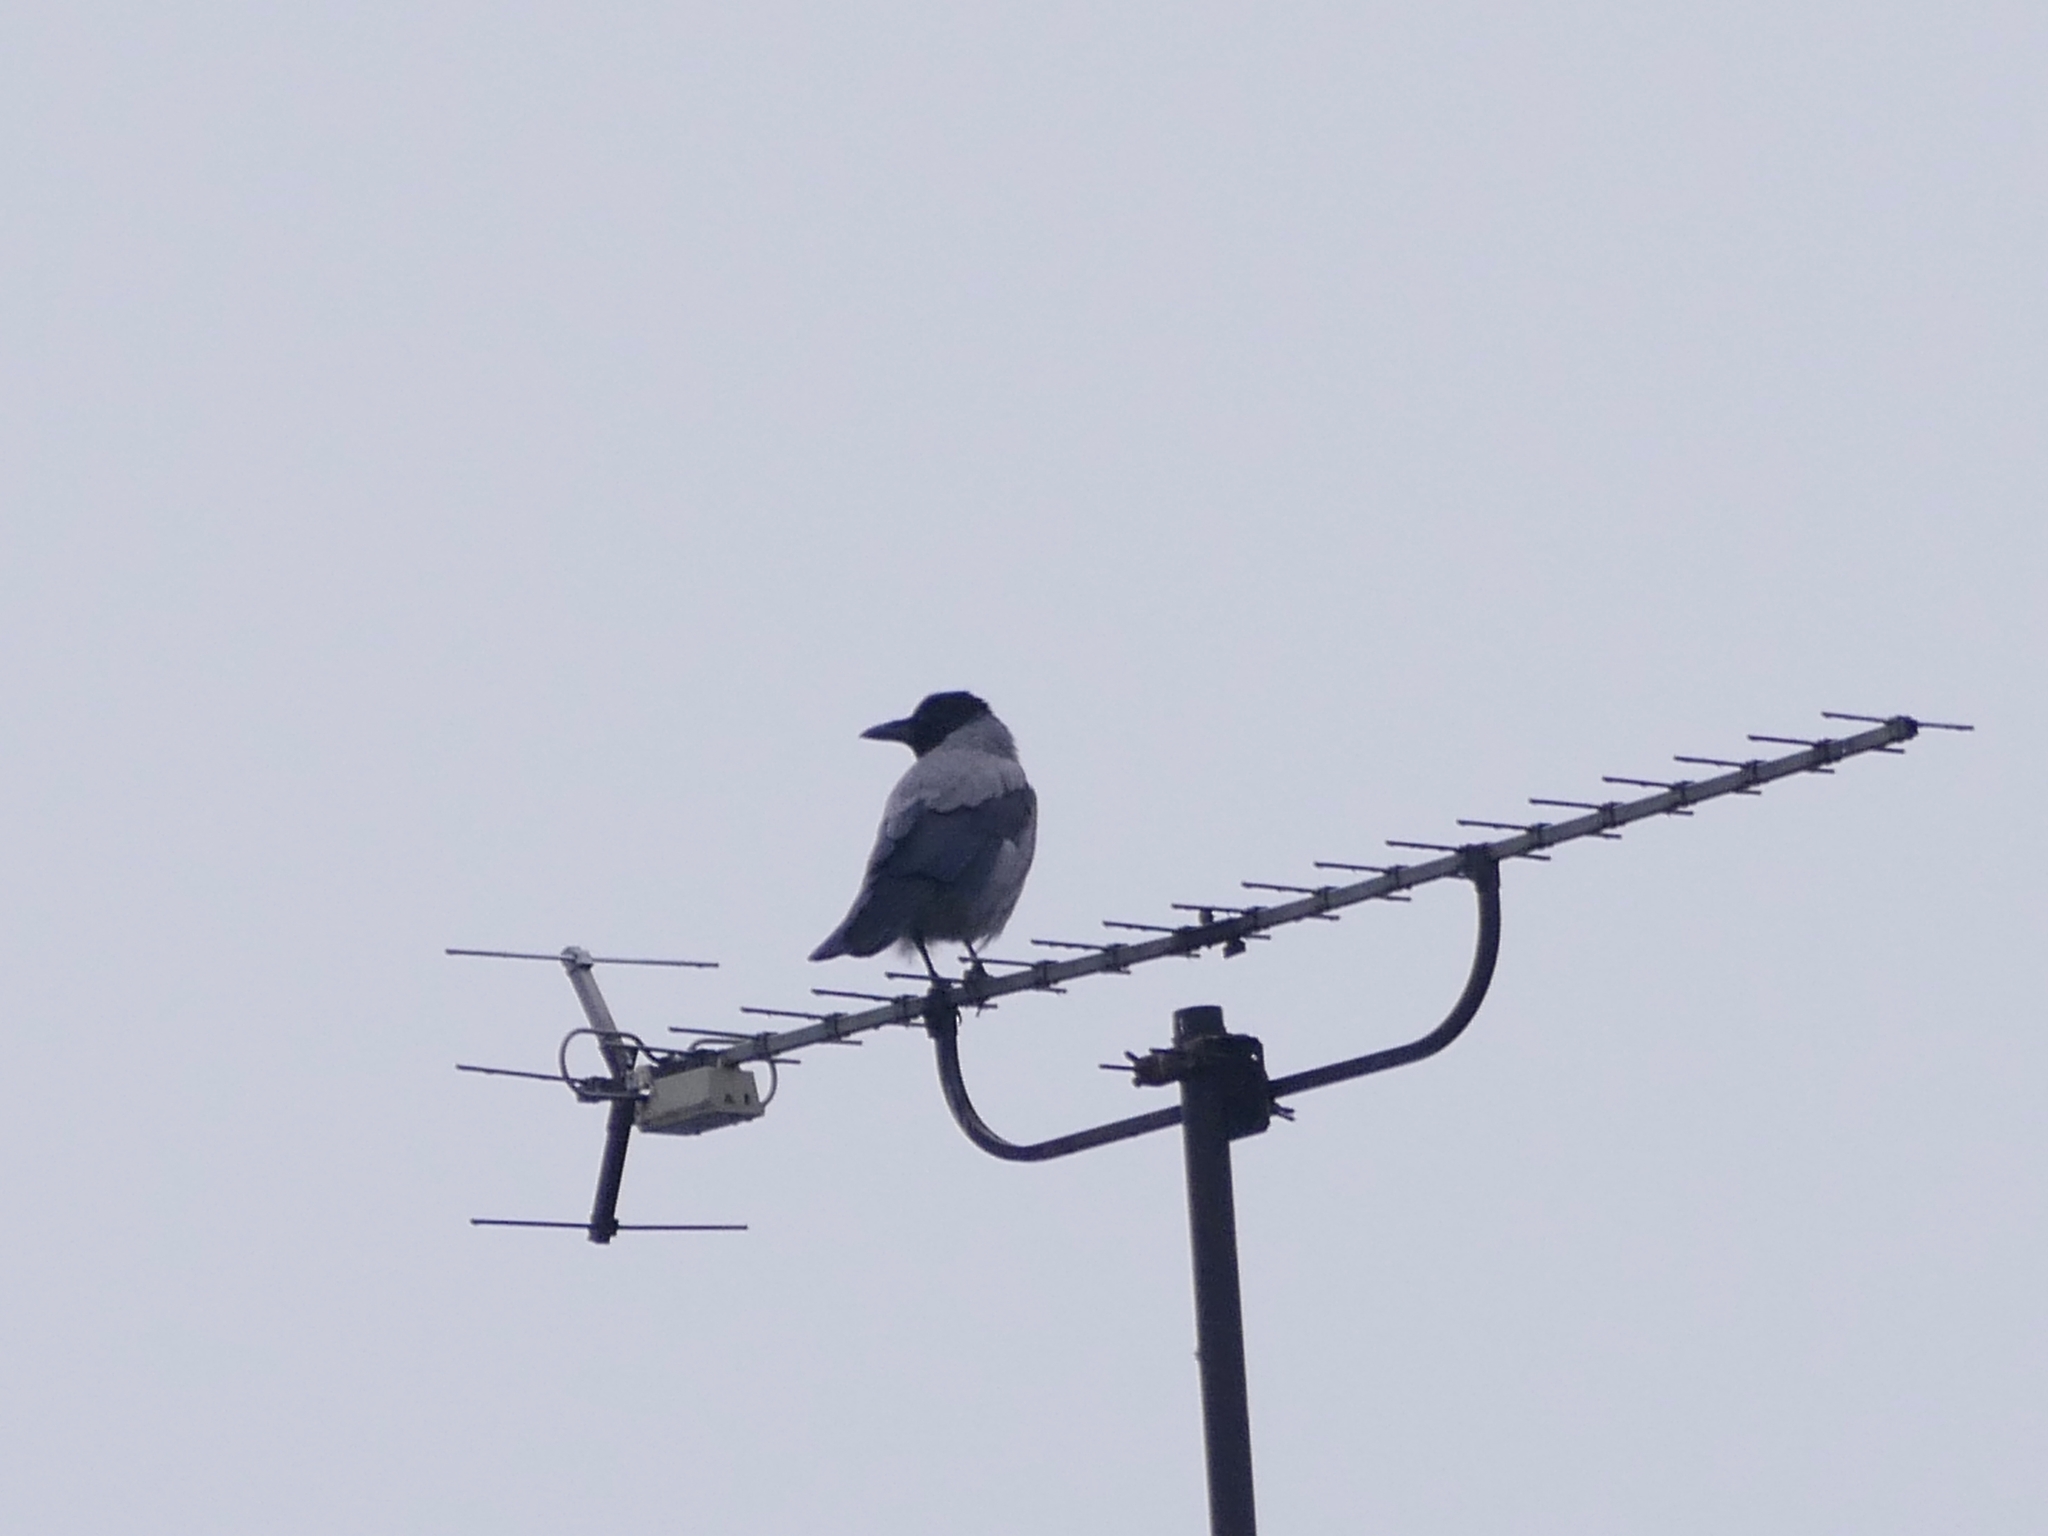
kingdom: Animalia
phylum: Chordata
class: Aves
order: Passeriformes
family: Corvidae
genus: Corvus
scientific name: Corvus cornix
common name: Hooded crow
